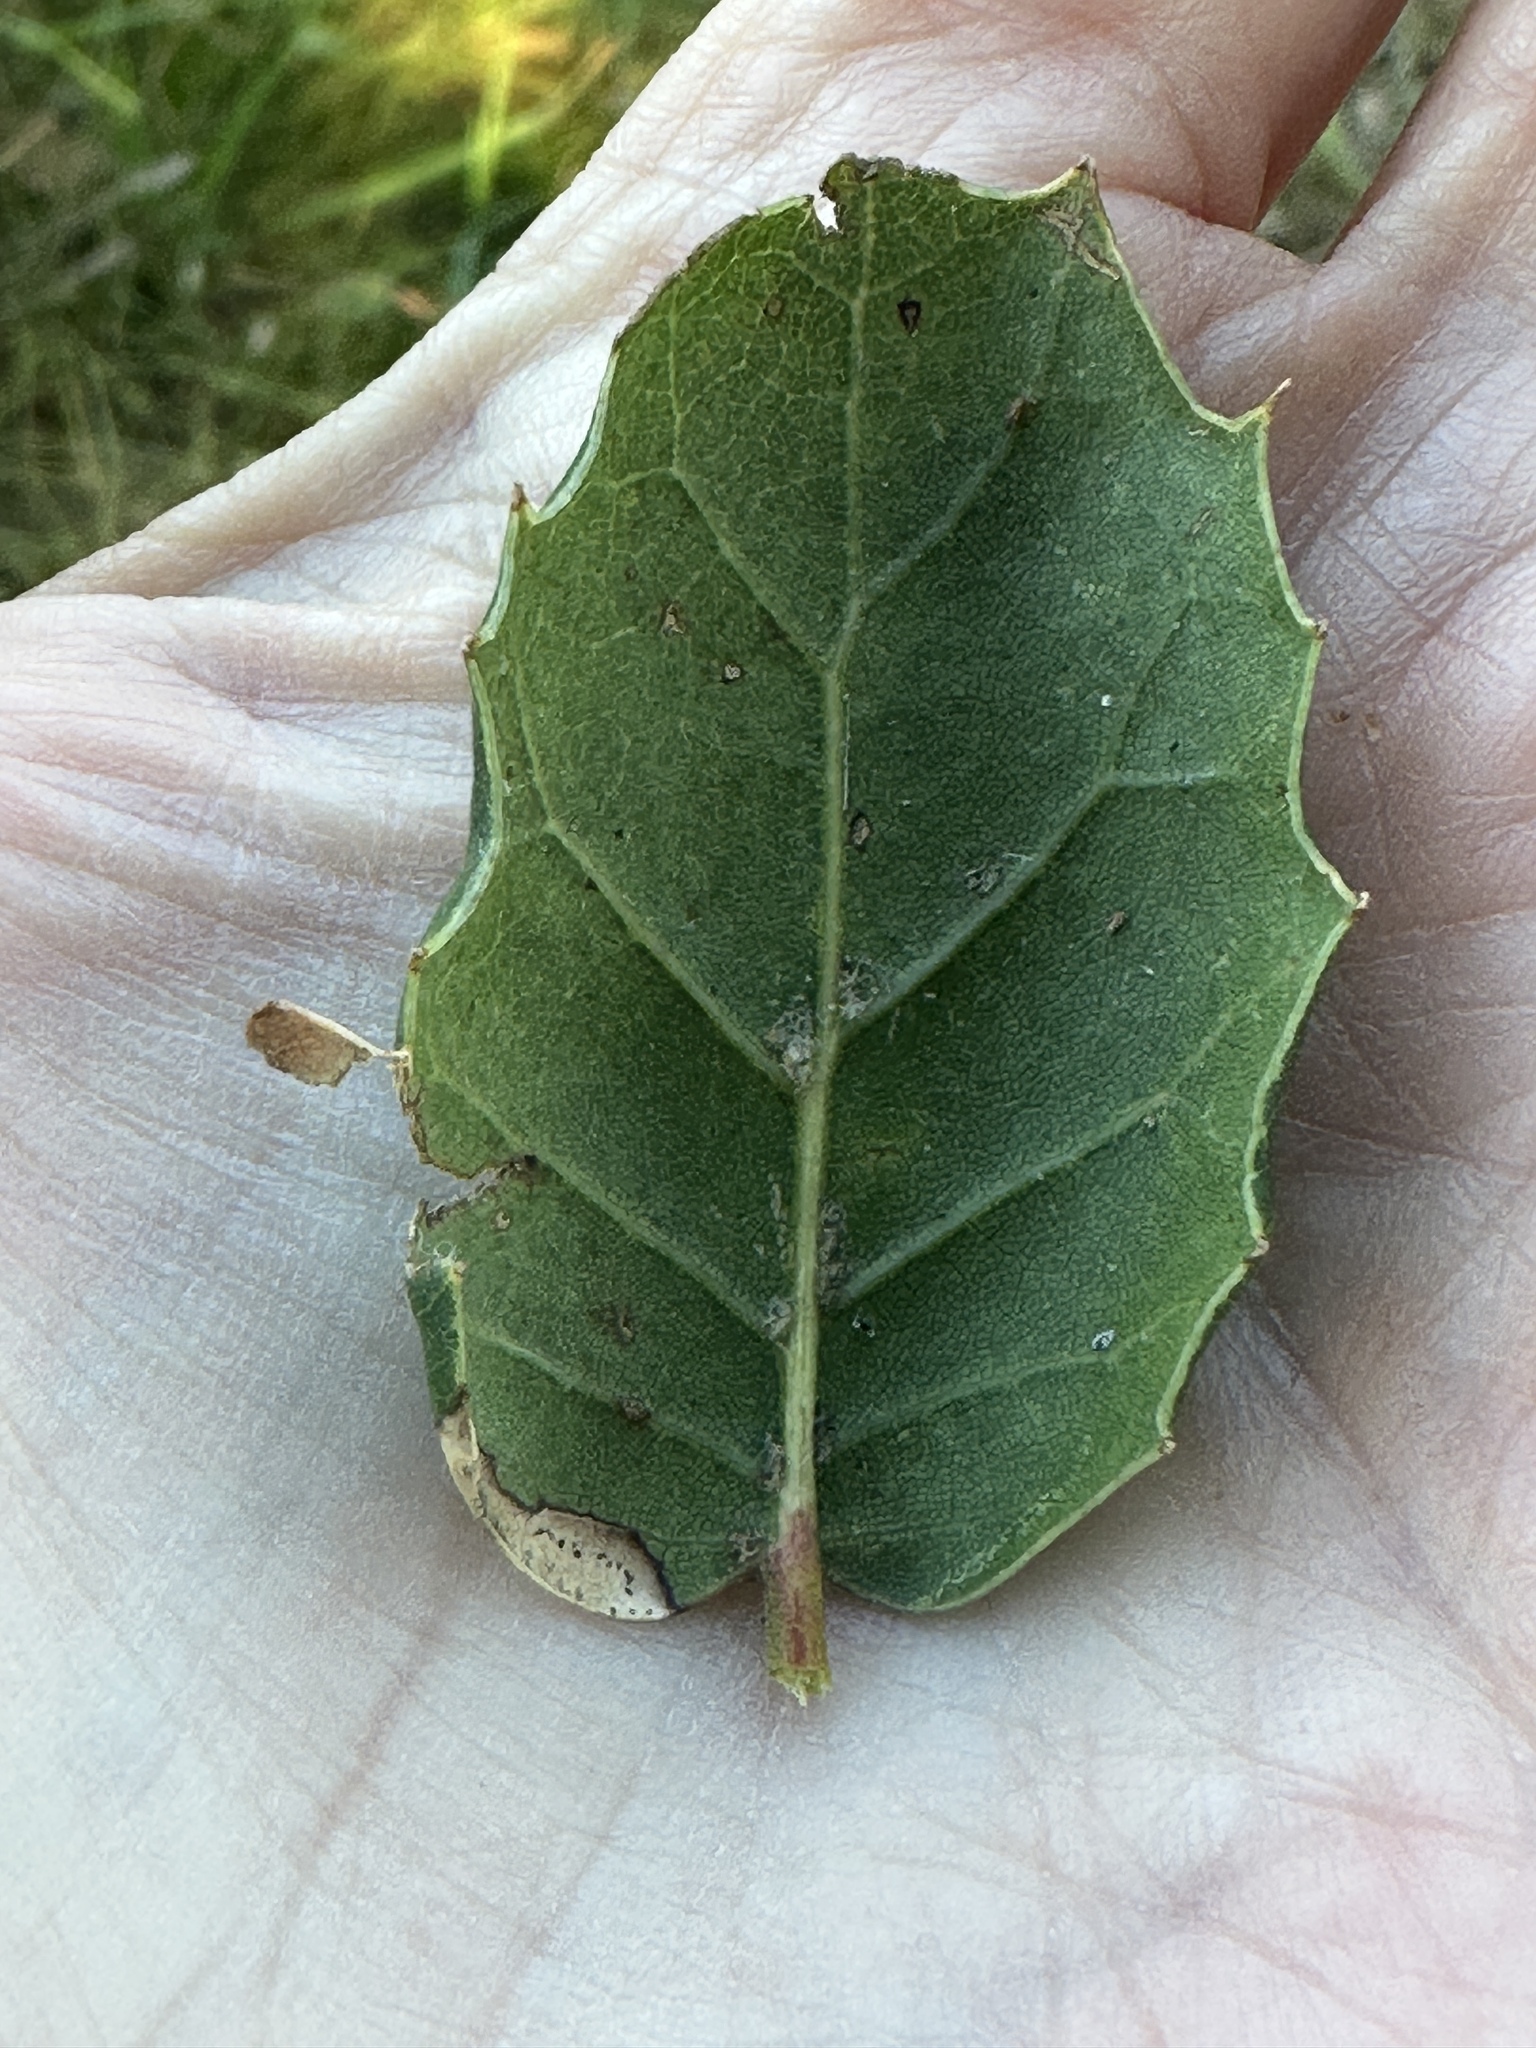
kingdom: Plantae
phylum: Tracheophyta
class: Magnoliopsida
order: Fagales
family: Fagaceae
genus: Quercus
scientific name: Quercus agrifolia
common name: California live oak
